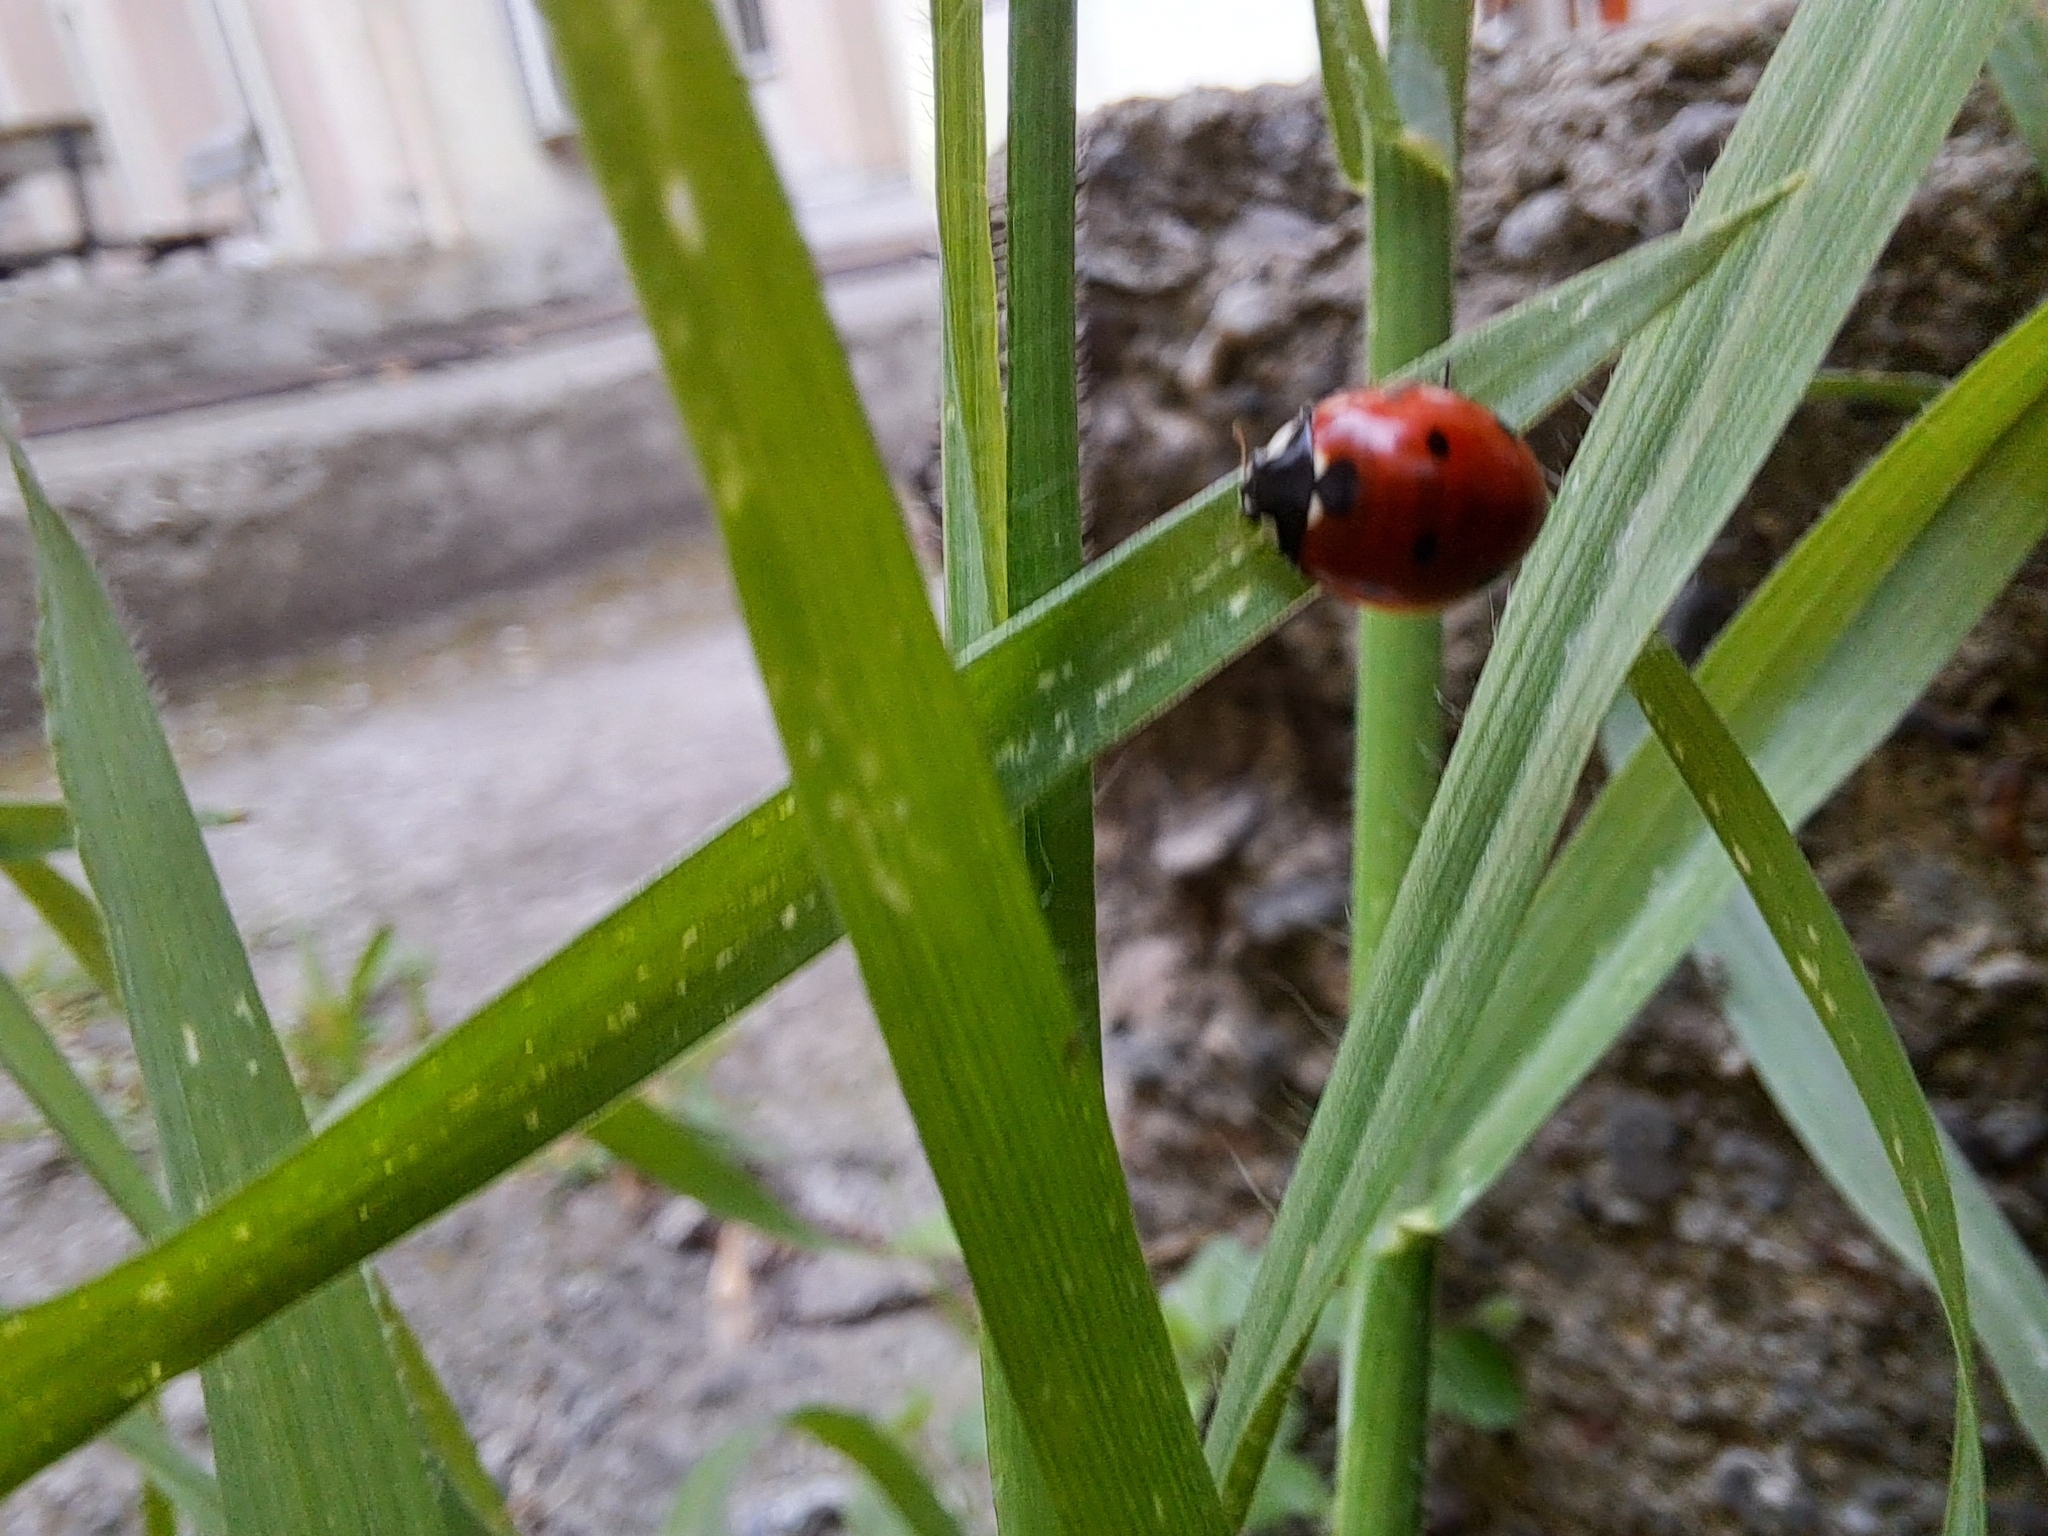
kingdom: Animalia
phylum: Arthropoda
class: Insecta
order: Coleoptera
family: Coccinellidae
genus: Coccinella
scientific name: Coccinella septempunctata
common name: Sevenspotted lady beetle
